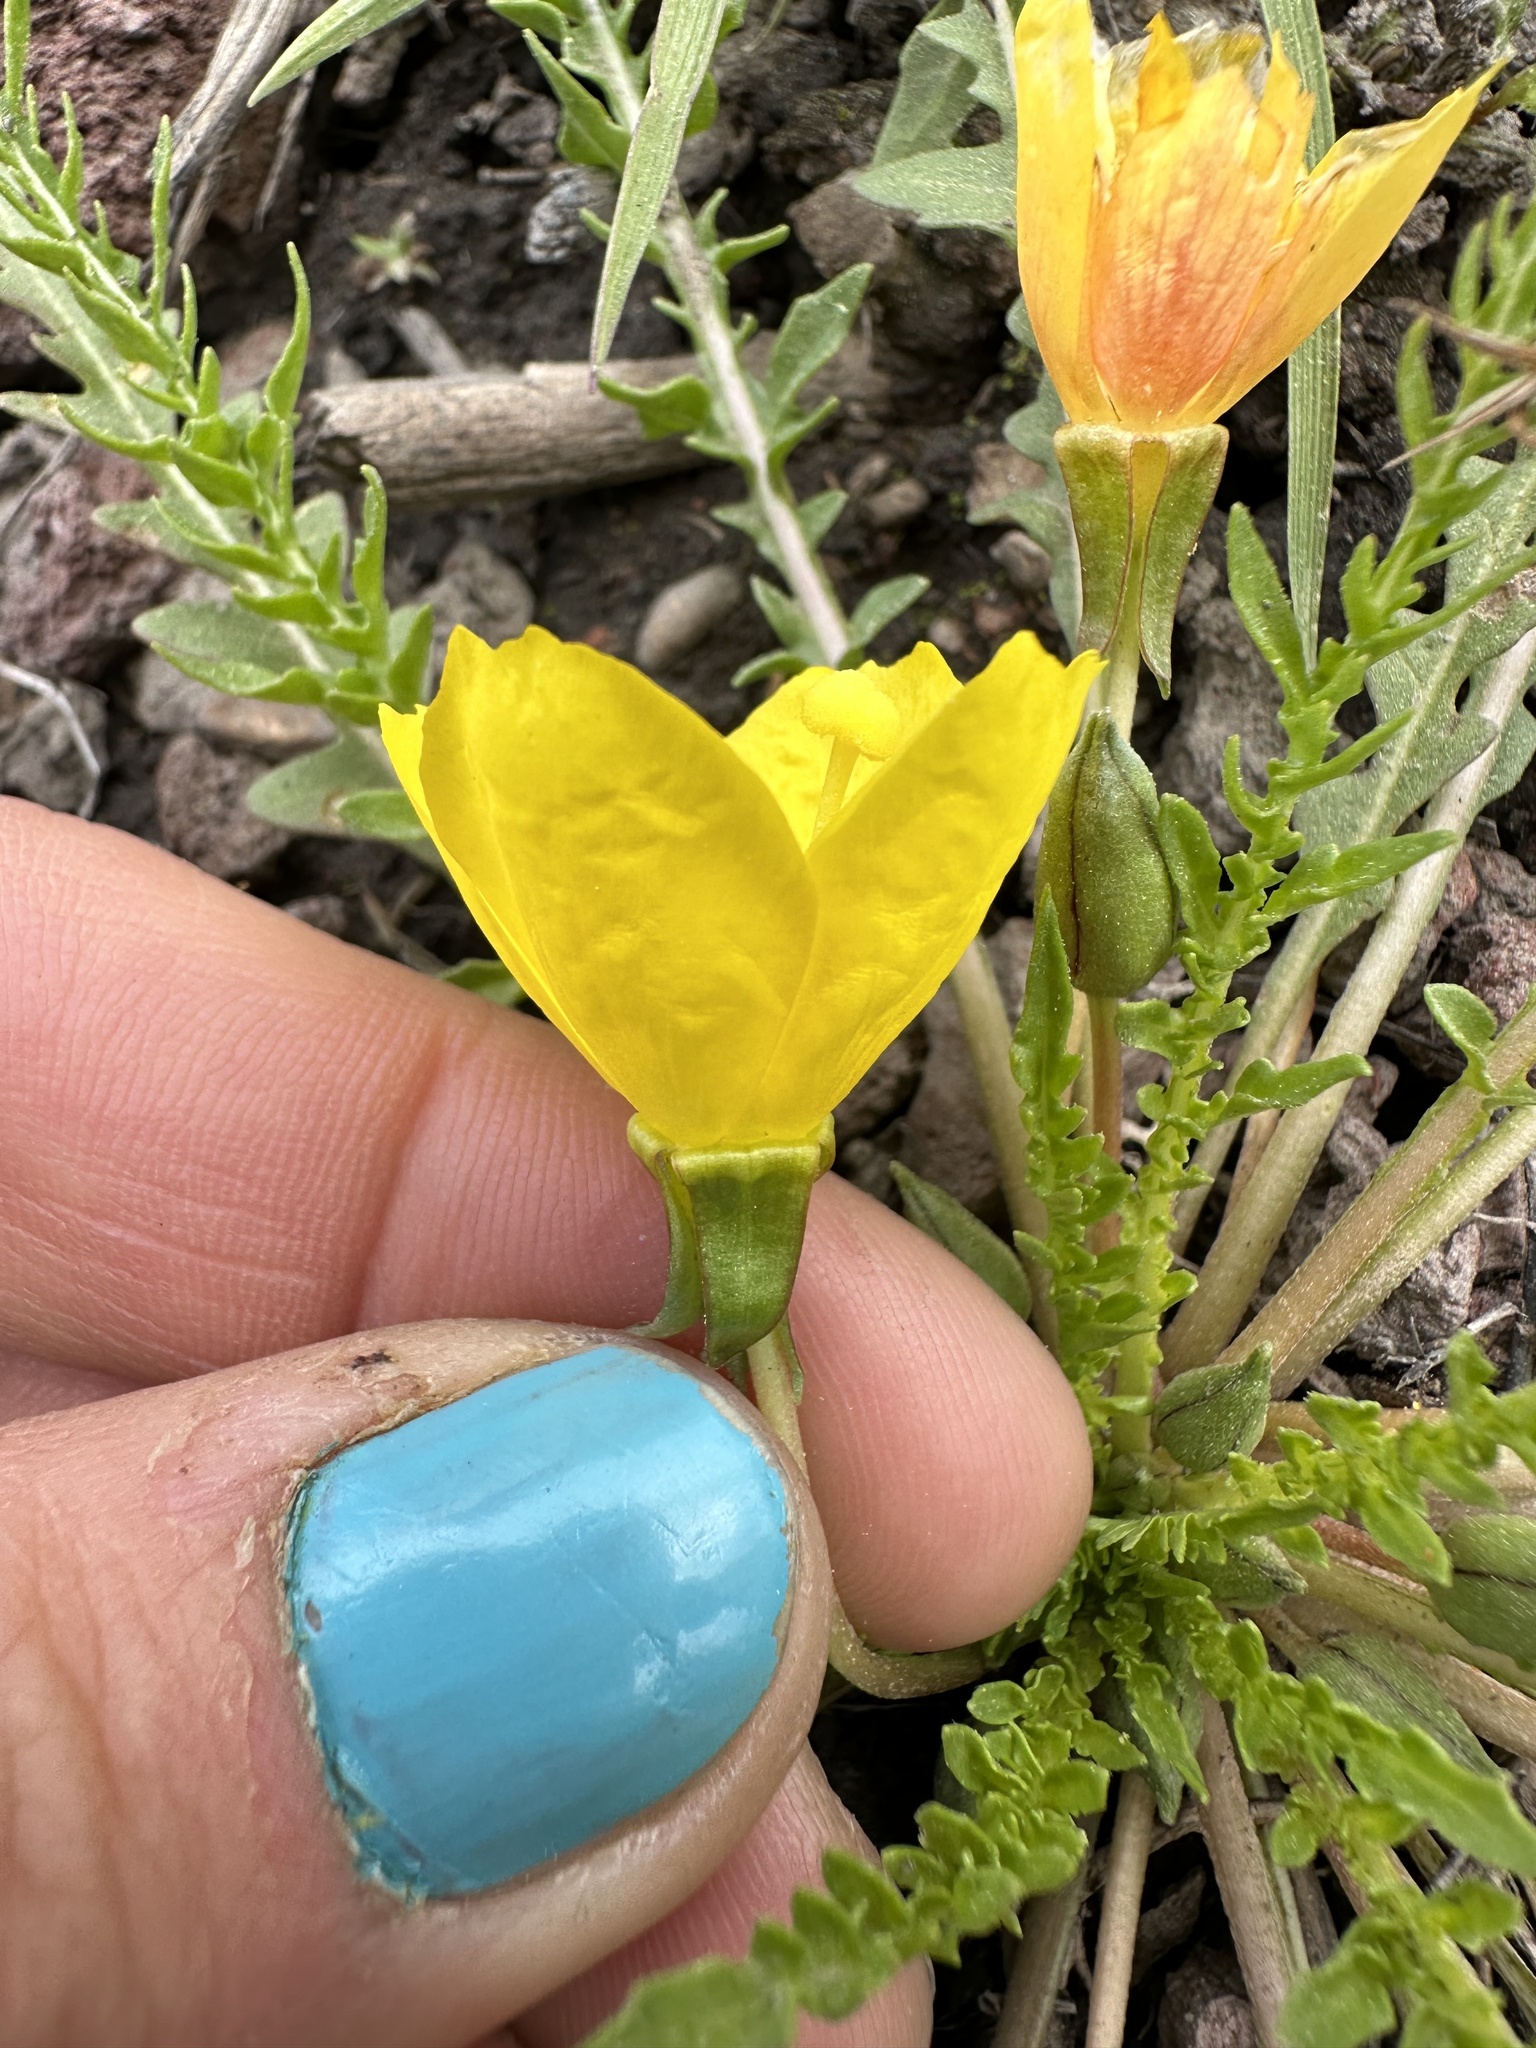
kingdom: Plantae
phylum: Tracheophyta
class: Magnoliopsida
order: Myrtales
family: Onagraceae
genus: Taraxia
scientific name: Taraxia tanacetifolia
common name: Tansyleaf evening primrose
